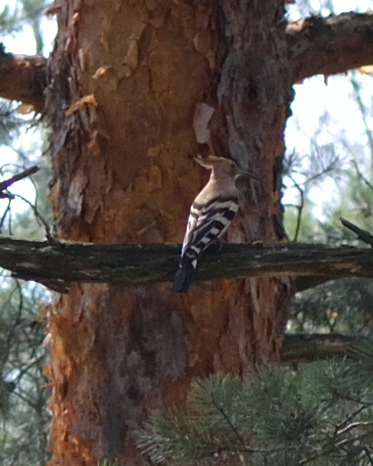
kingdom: Animalia
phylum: Chordata
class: Aves
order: Bucerotiformes
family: Upupidae
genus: Upupa
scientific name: Upupa epops
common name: Eurasian hoopoe
